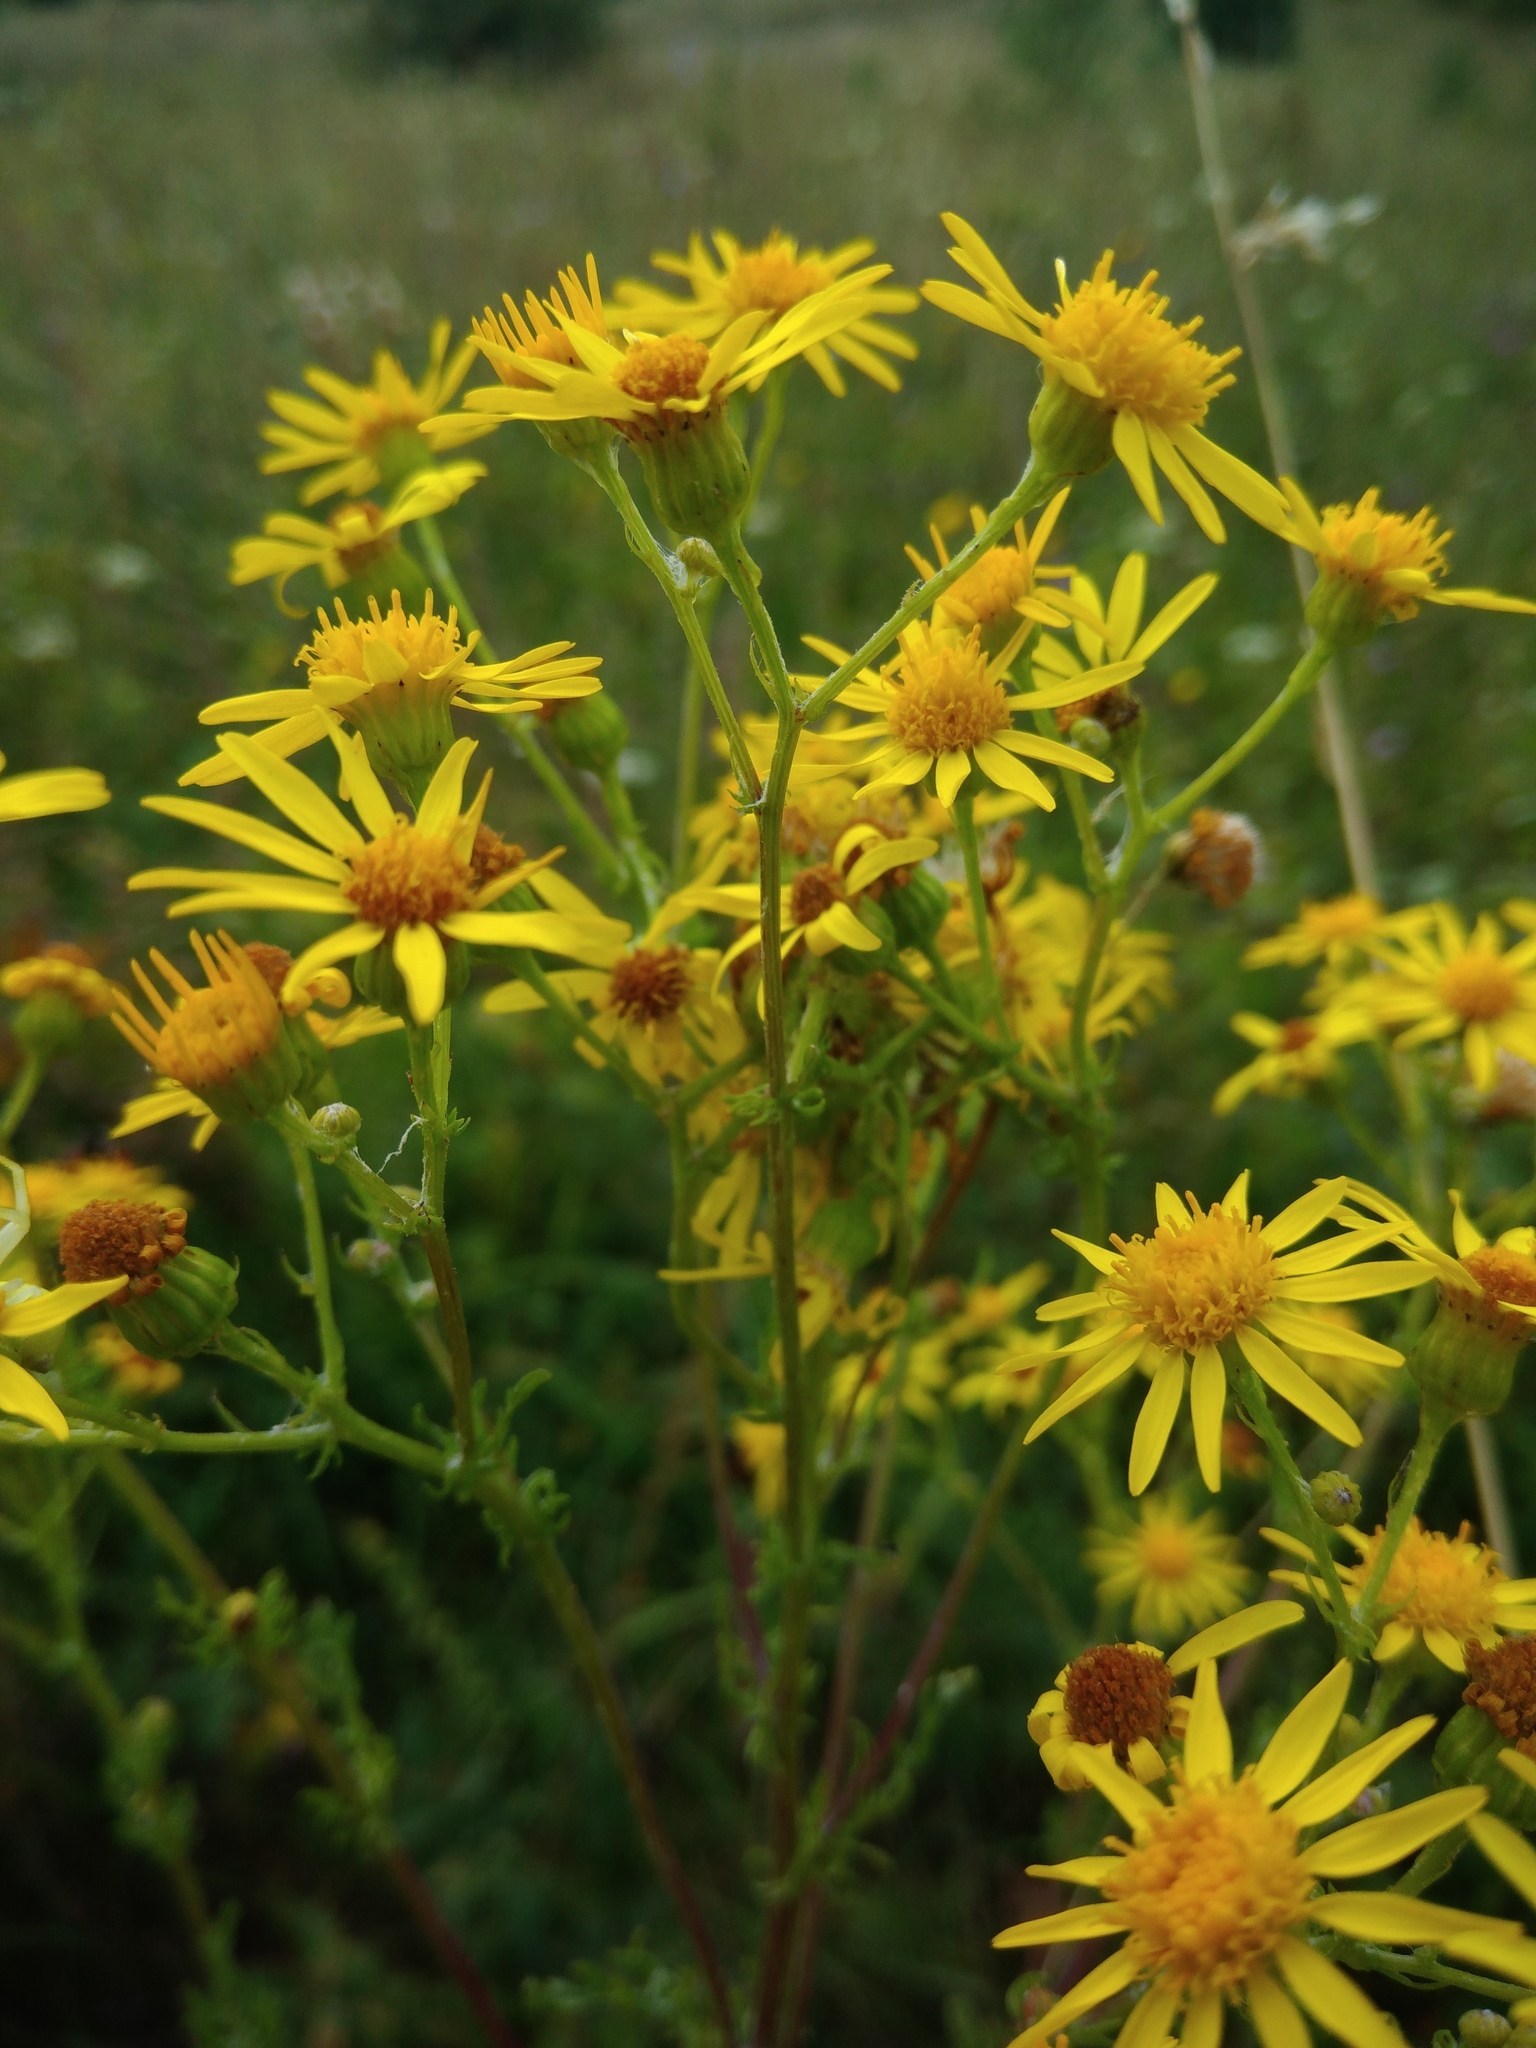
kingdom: Plantae
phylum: Tracheophyta
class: Magnoliopsida
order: Asterales
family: Asteraceae
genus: Jacobaea
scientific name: Jacobaea vulgaris
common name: Stinking willie
